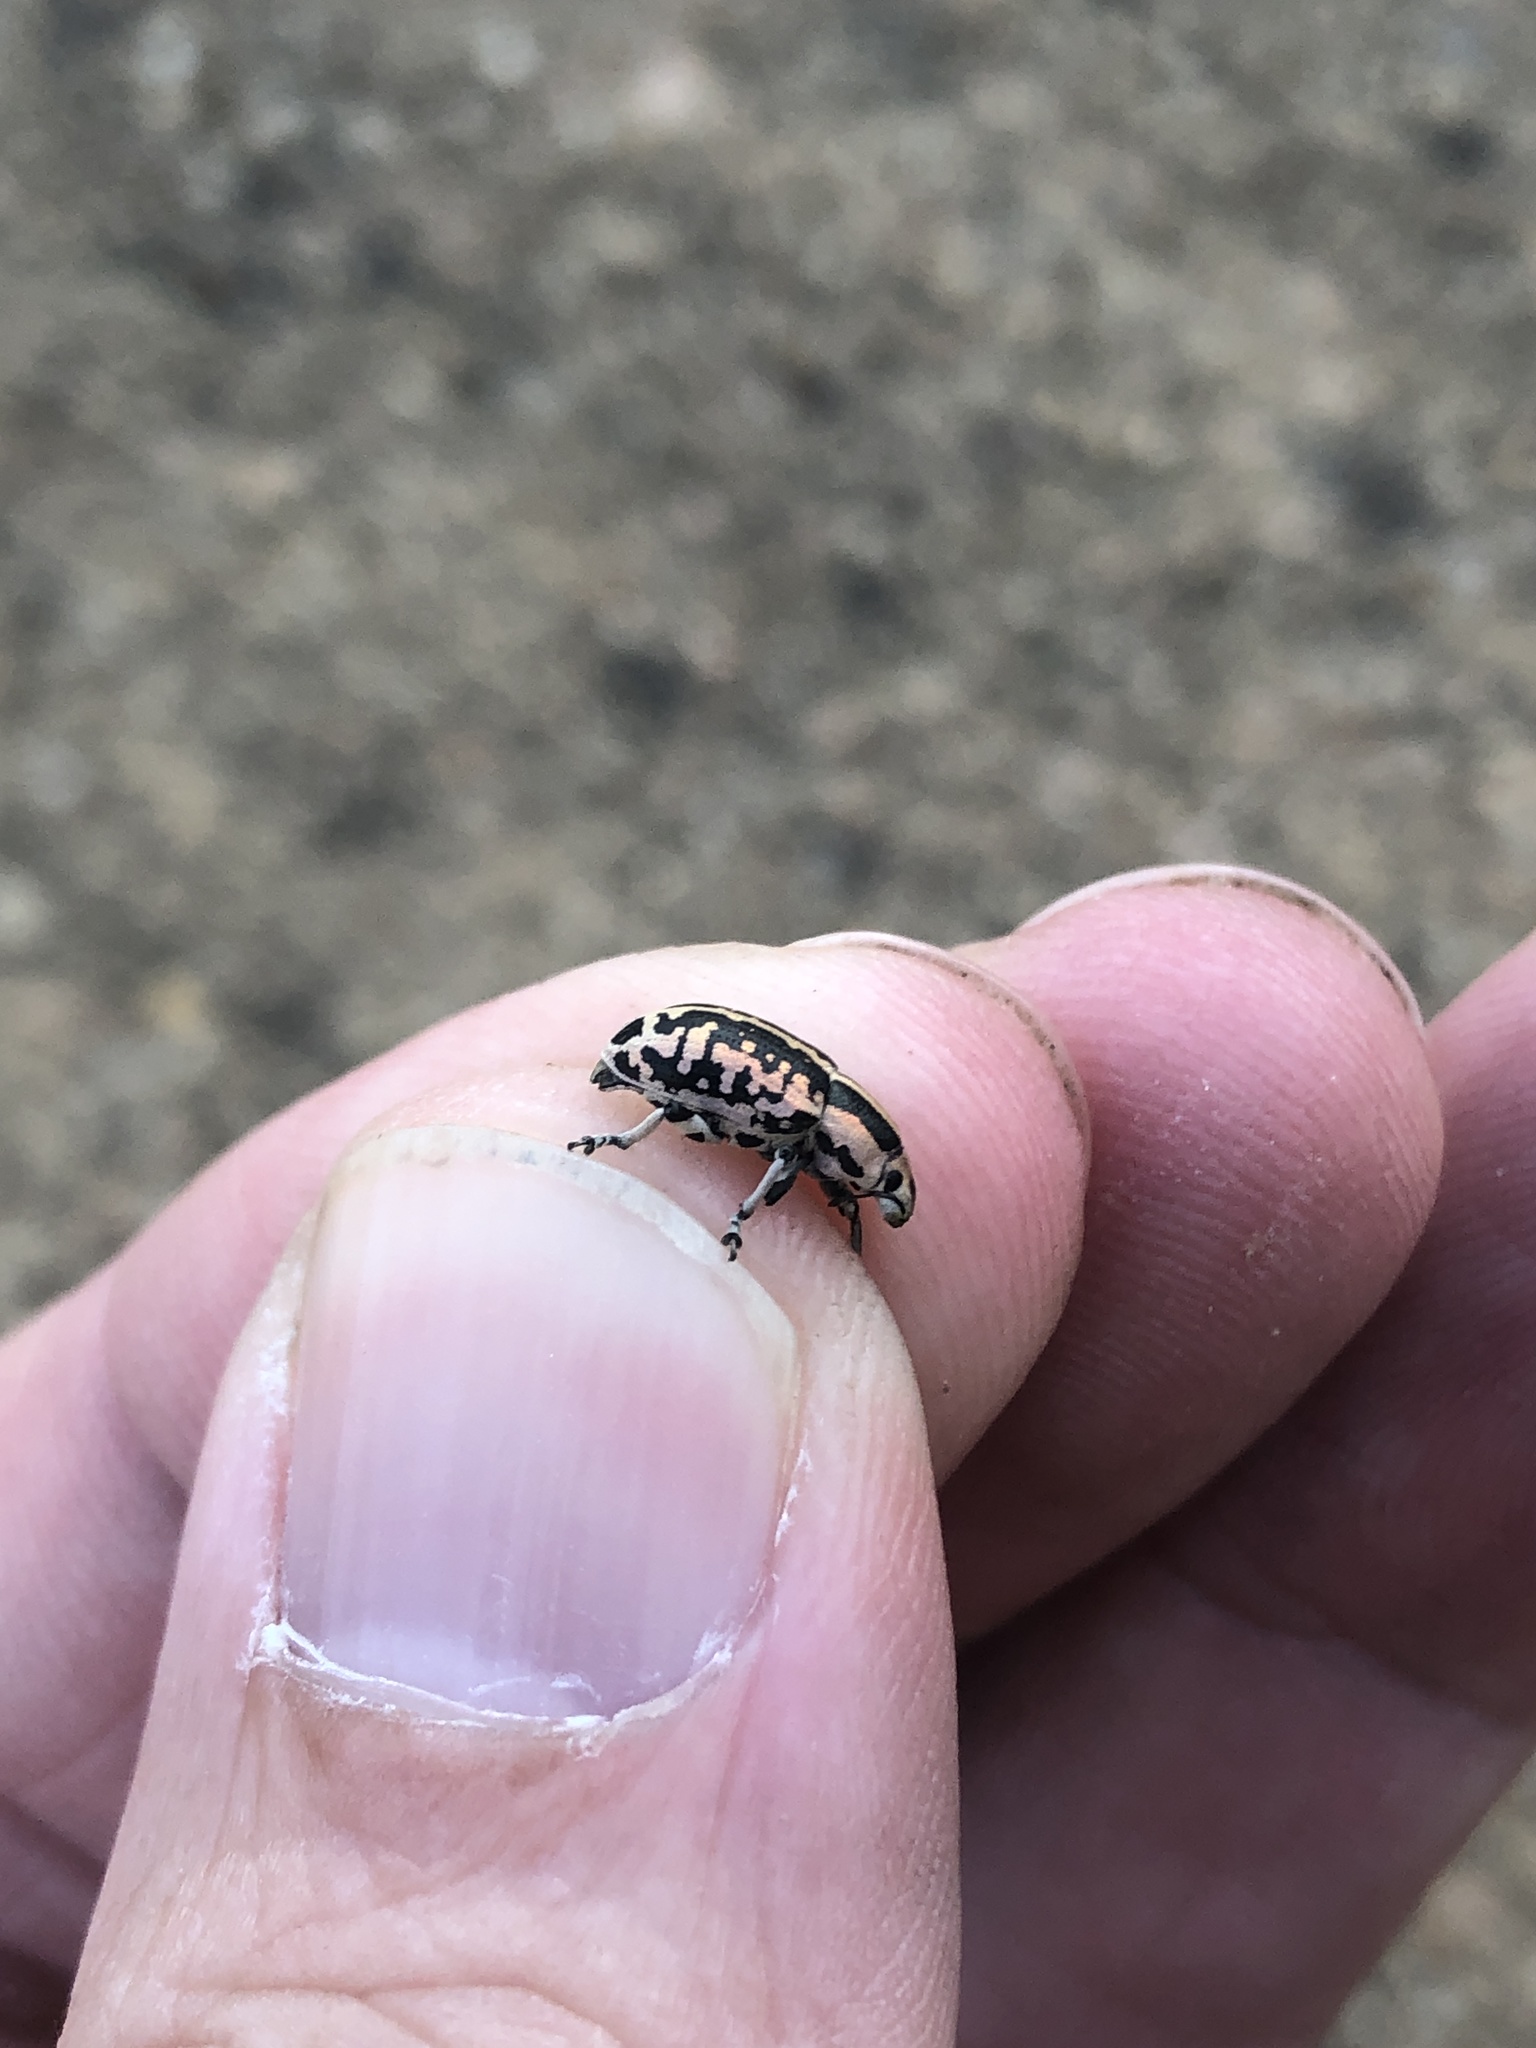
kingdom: Animalia
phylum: Arthropoda
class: Insecta
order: Coleoptera
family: Curculionidae
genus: Eudiagogus
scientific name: Eudiagogus rosenschoeldi
